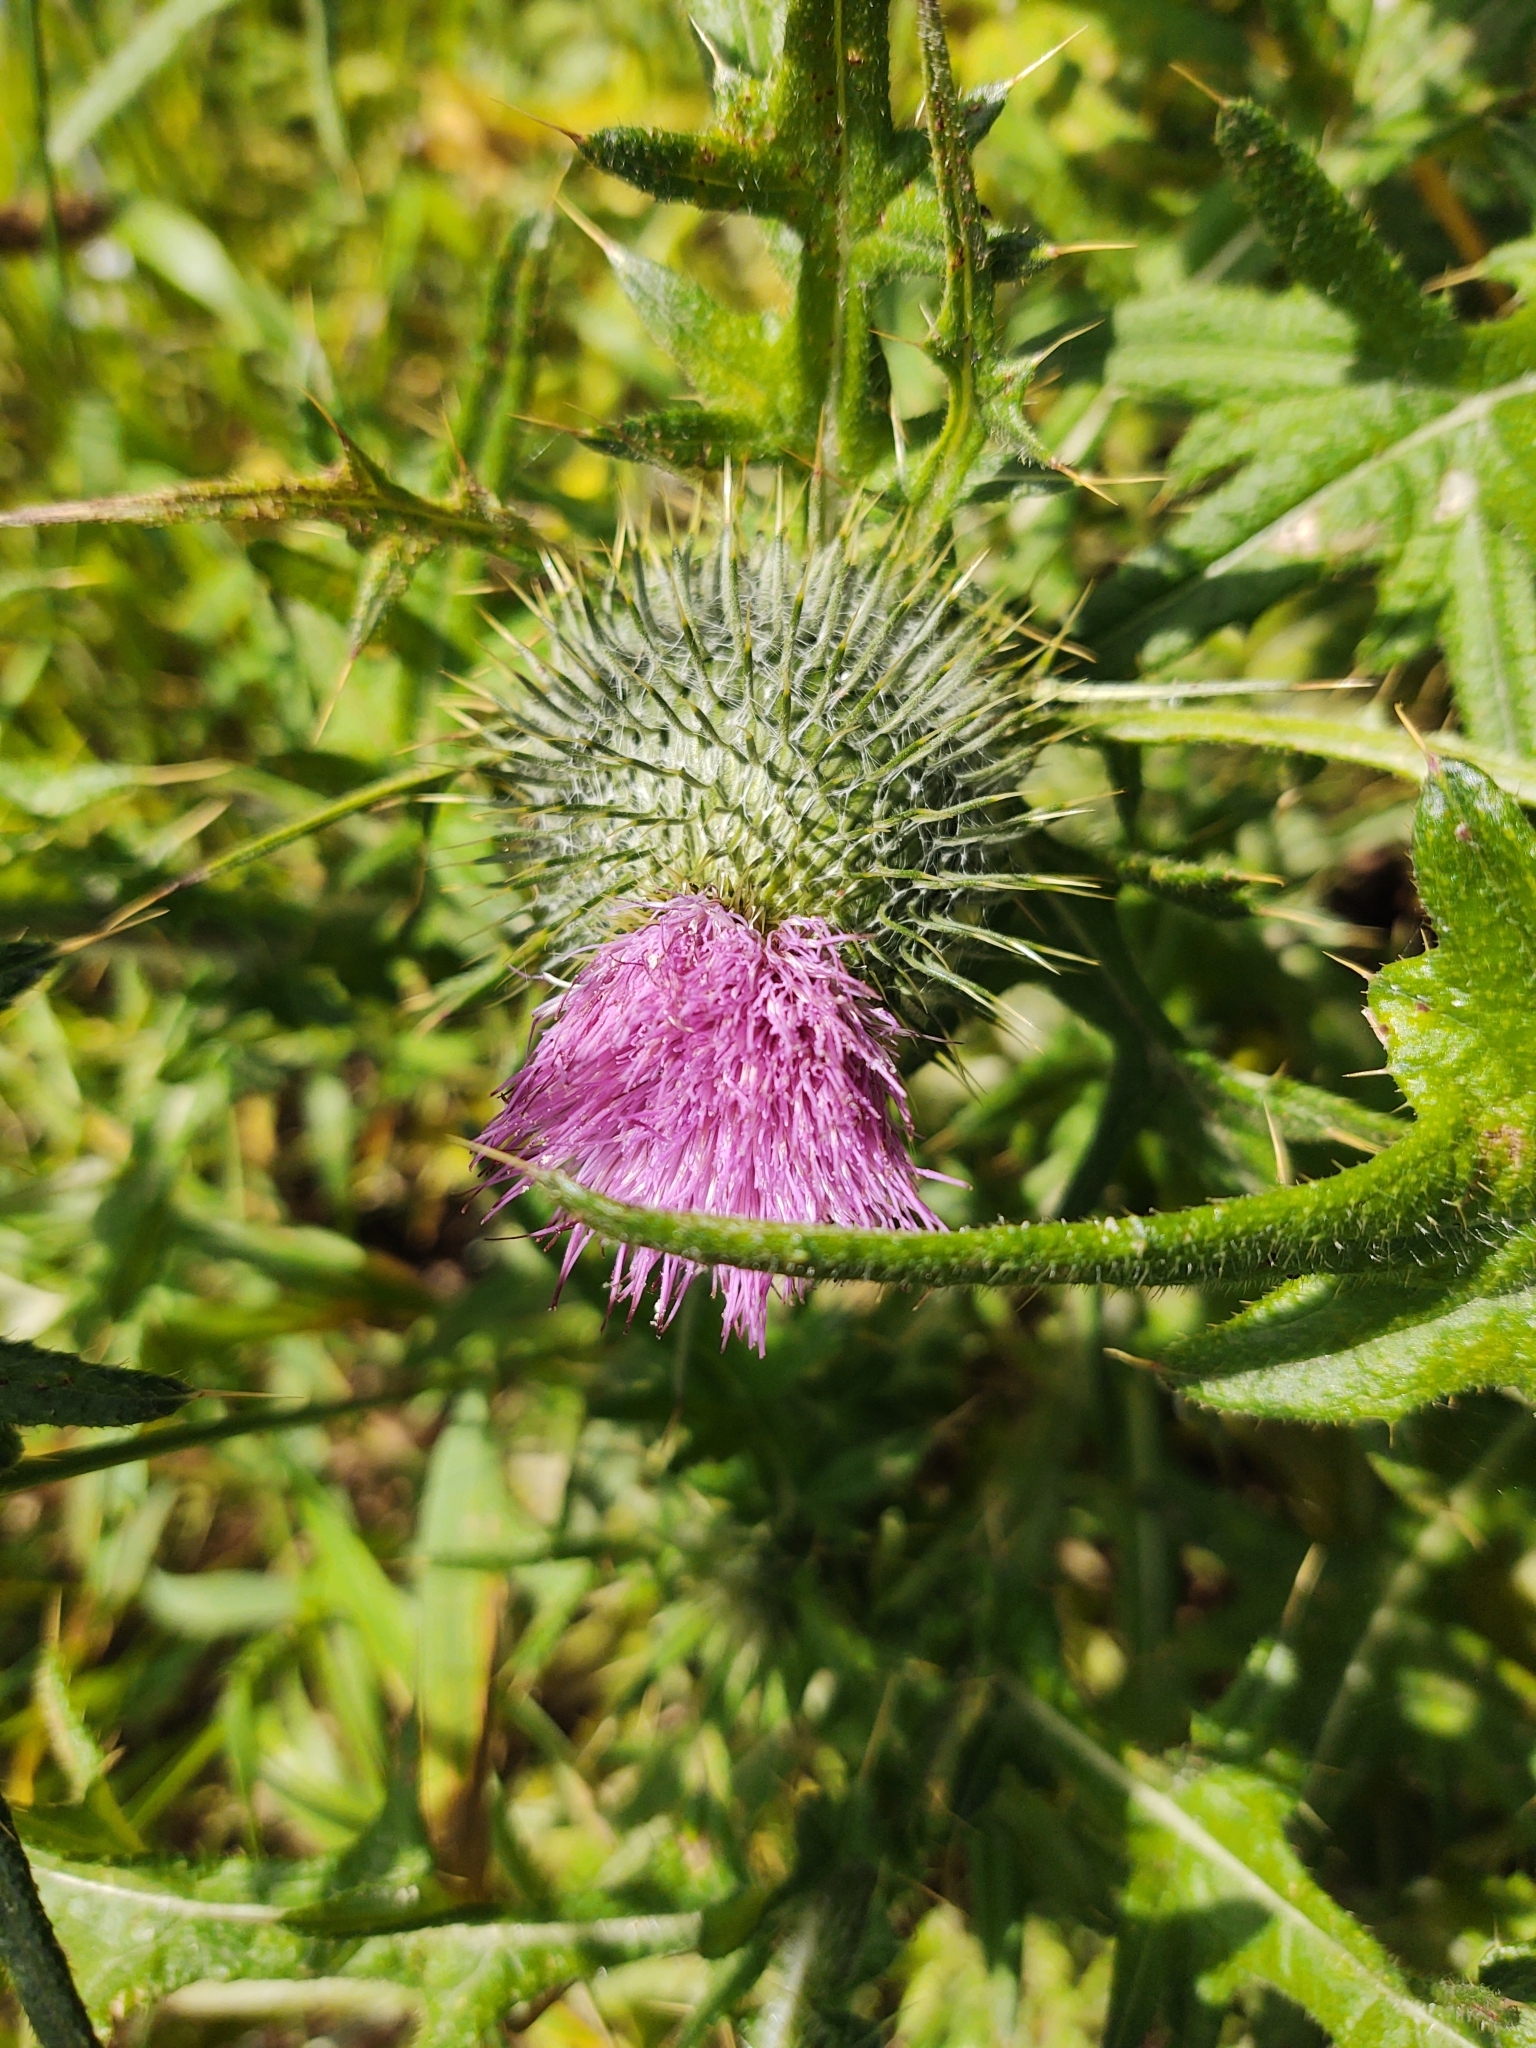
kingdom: Plantae
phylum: Tracheophyta
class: Magnoliopsida
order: Asterales
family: Asteraceae
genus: Cirsium
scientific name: Cirsium vulgare
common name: Bull thistle
